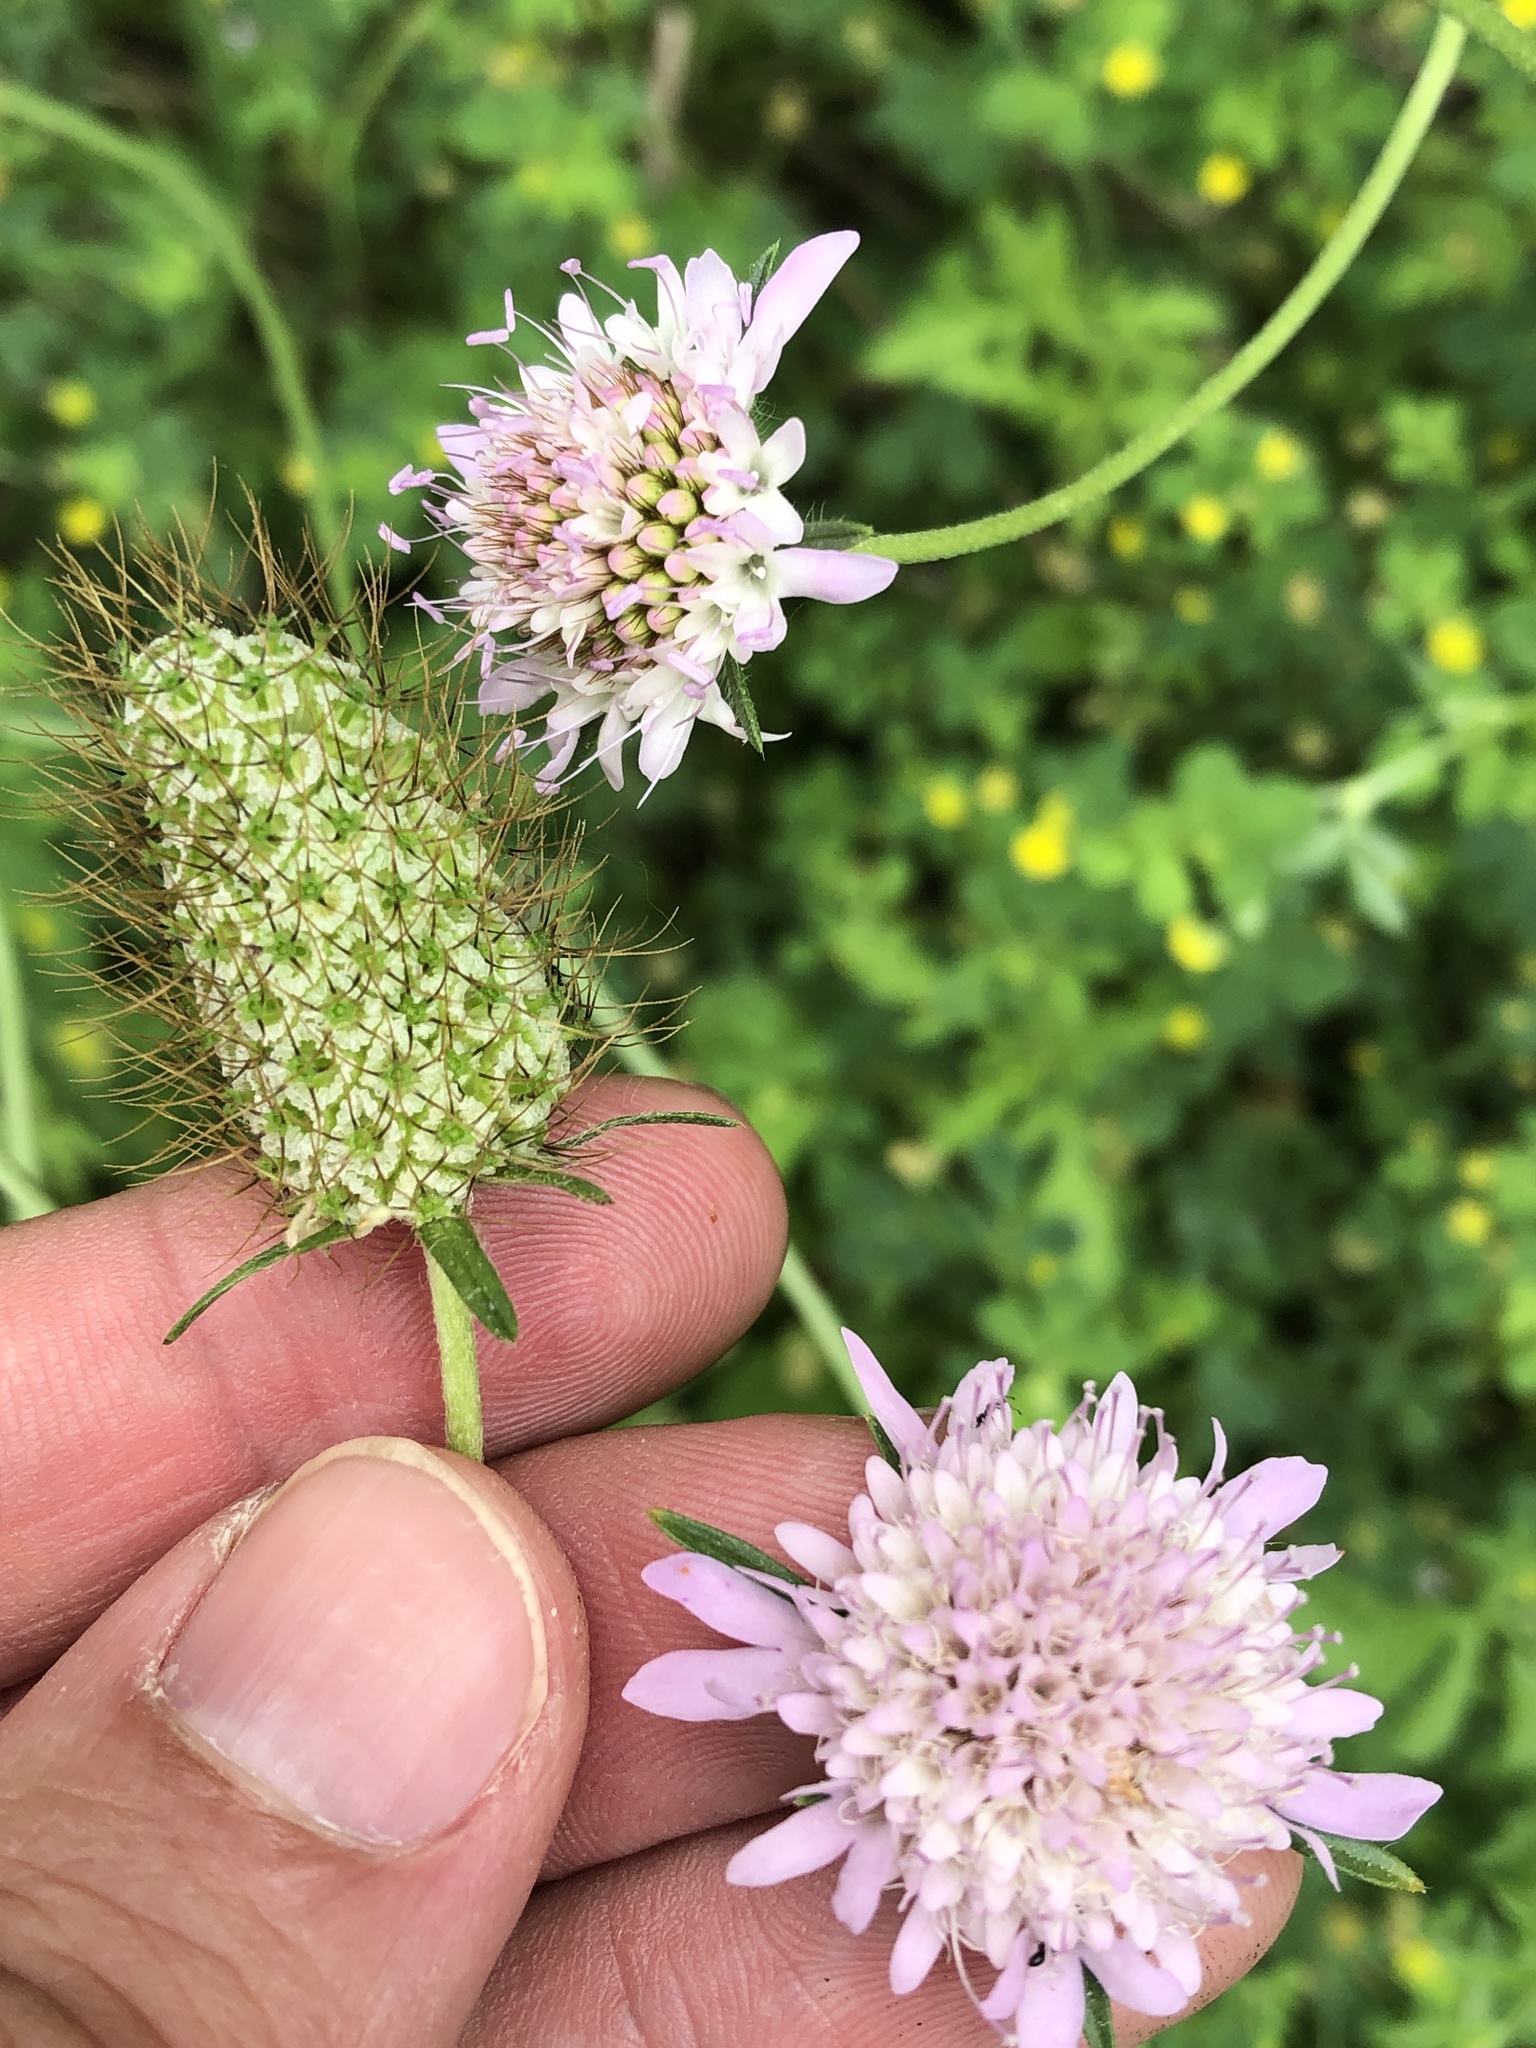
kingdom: Plantae
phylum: Tracheophyta
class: Magnoliopsida
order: Dipsacales
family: Caprifoliaceae
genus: Sixalix
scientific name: Sixalix atropurpurea
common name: Sweet scabious
